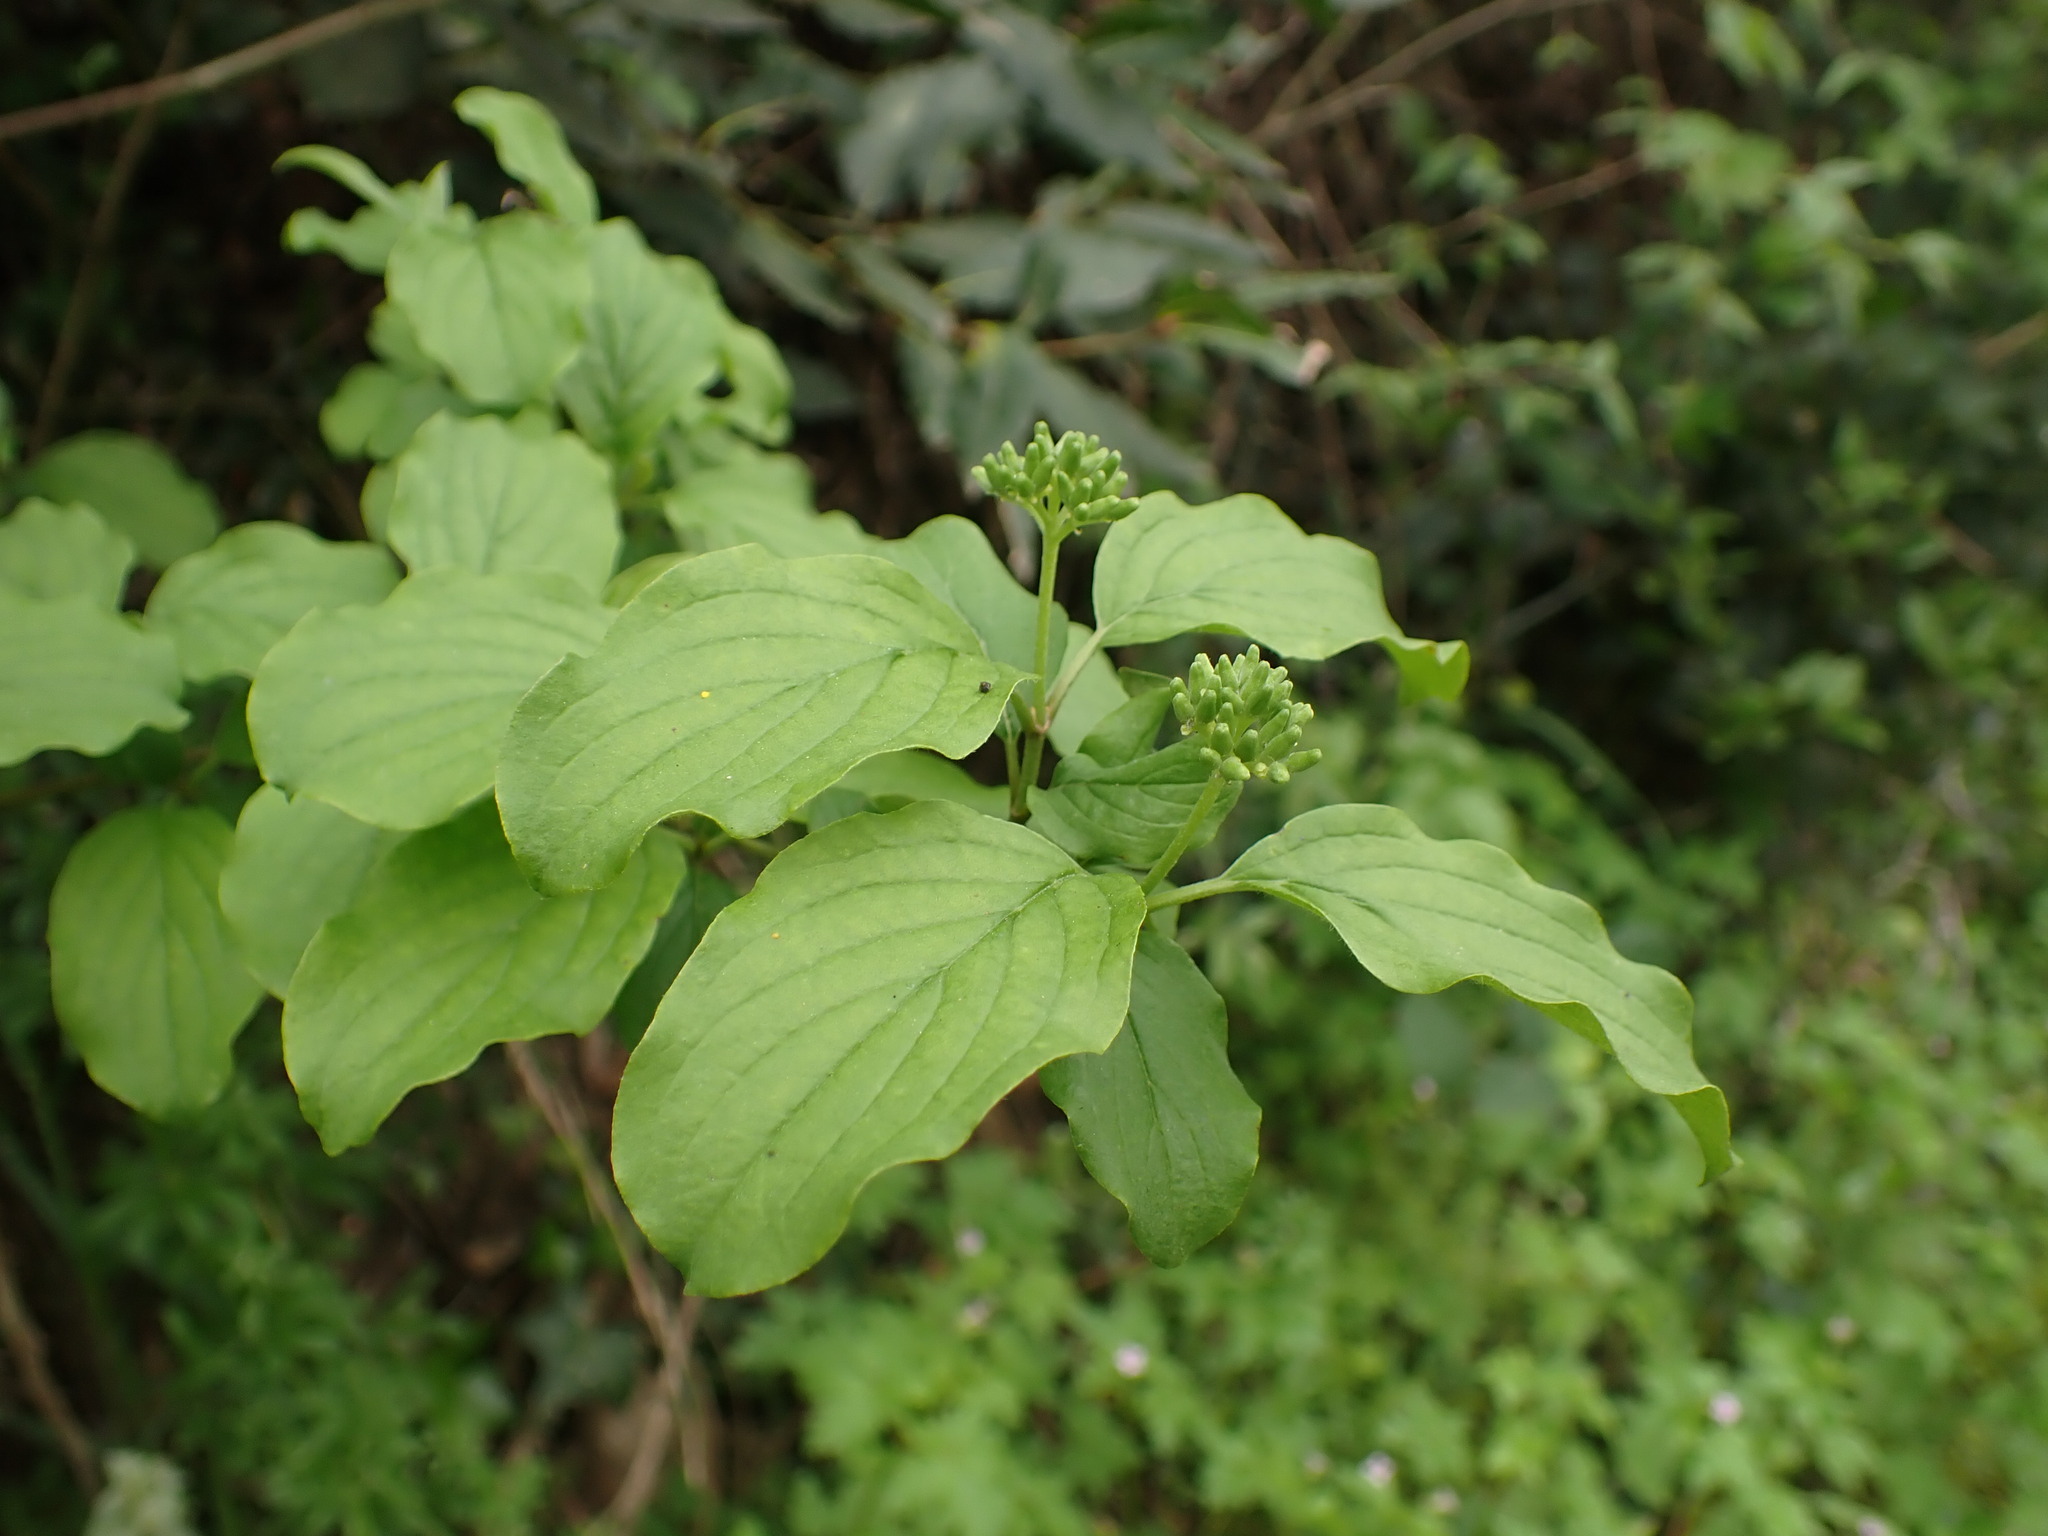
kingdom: Plantae
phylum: Tracheophyta
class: Magnoliopsida
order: Cornales
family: Cornaceae
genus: Cornus
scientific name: Cornus sanguinea
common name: Dogwood
